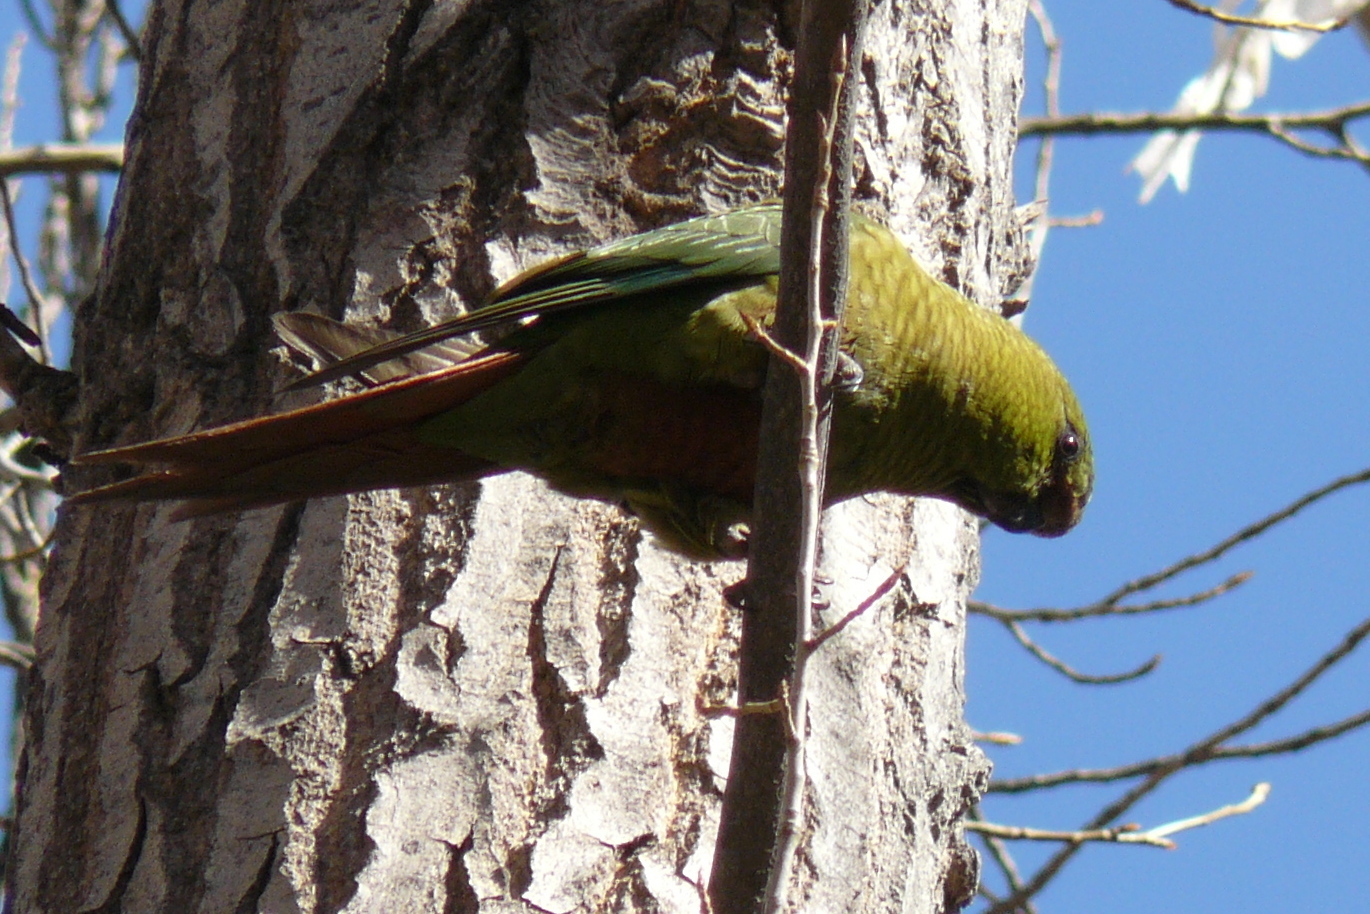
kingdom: Animalia
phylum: Chordata
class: Aves
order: Psittaciformes
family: Psittacidae
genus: Enicognathus
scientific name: Enicognathus ferrugineus
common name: Austral parakeet
